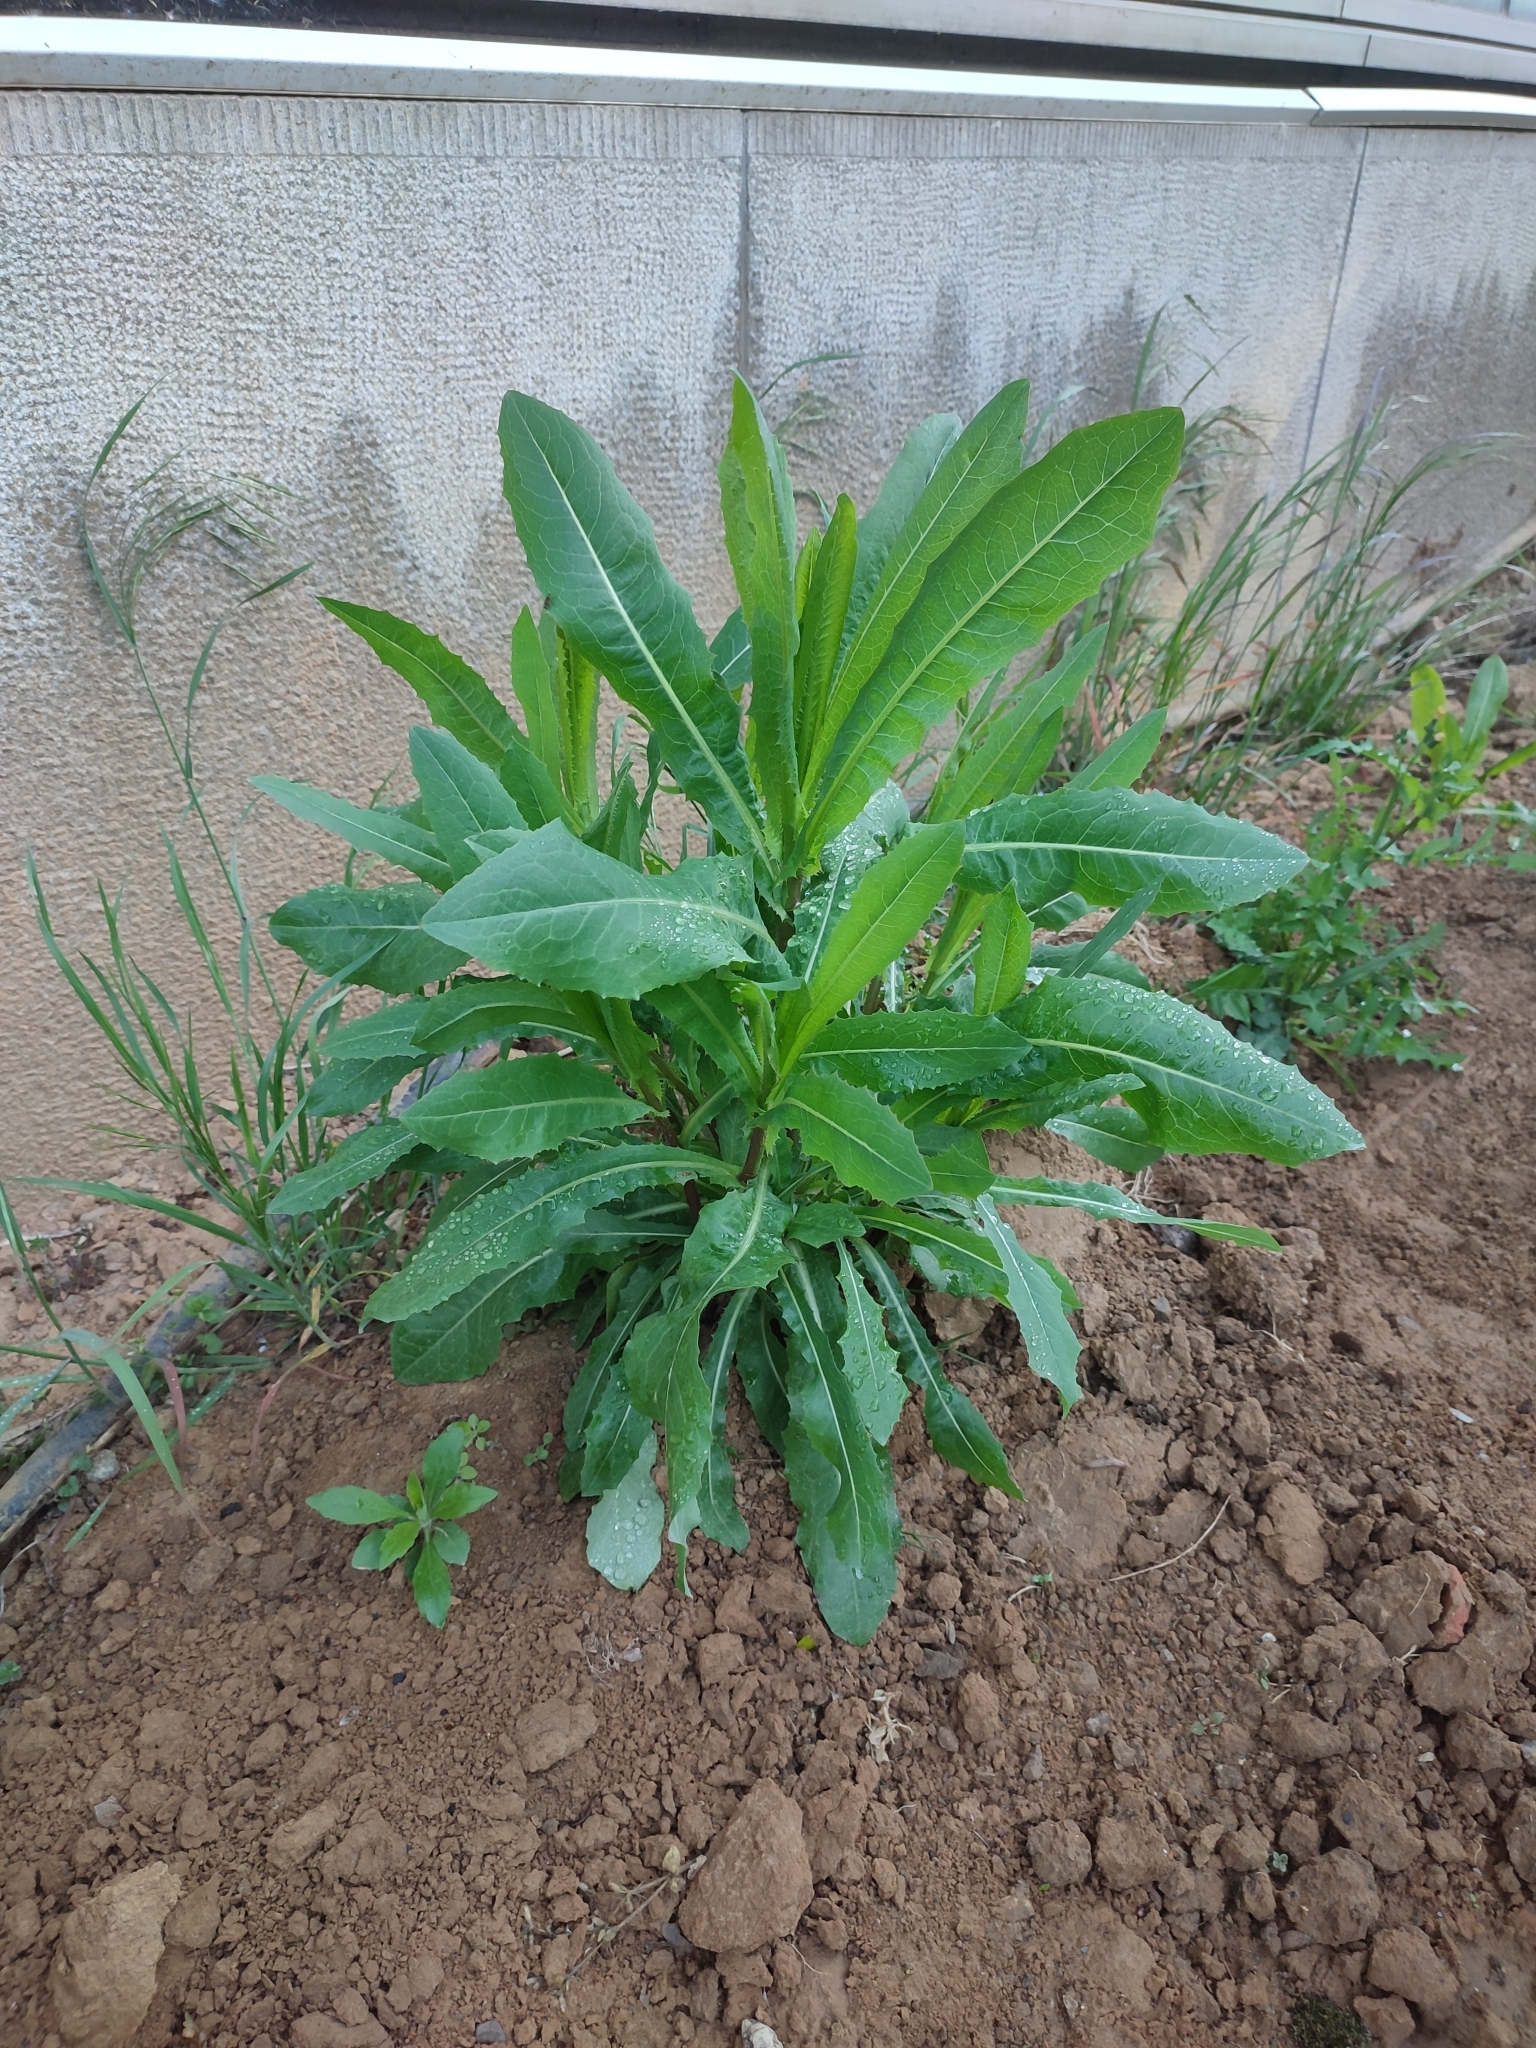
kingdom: Plantae
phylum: Tracheophyta
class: Magnoliopsida
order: Asterales
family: Asteraceae
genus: Lactuca
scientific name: Lactuca serriola
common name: Prickly lettuce
